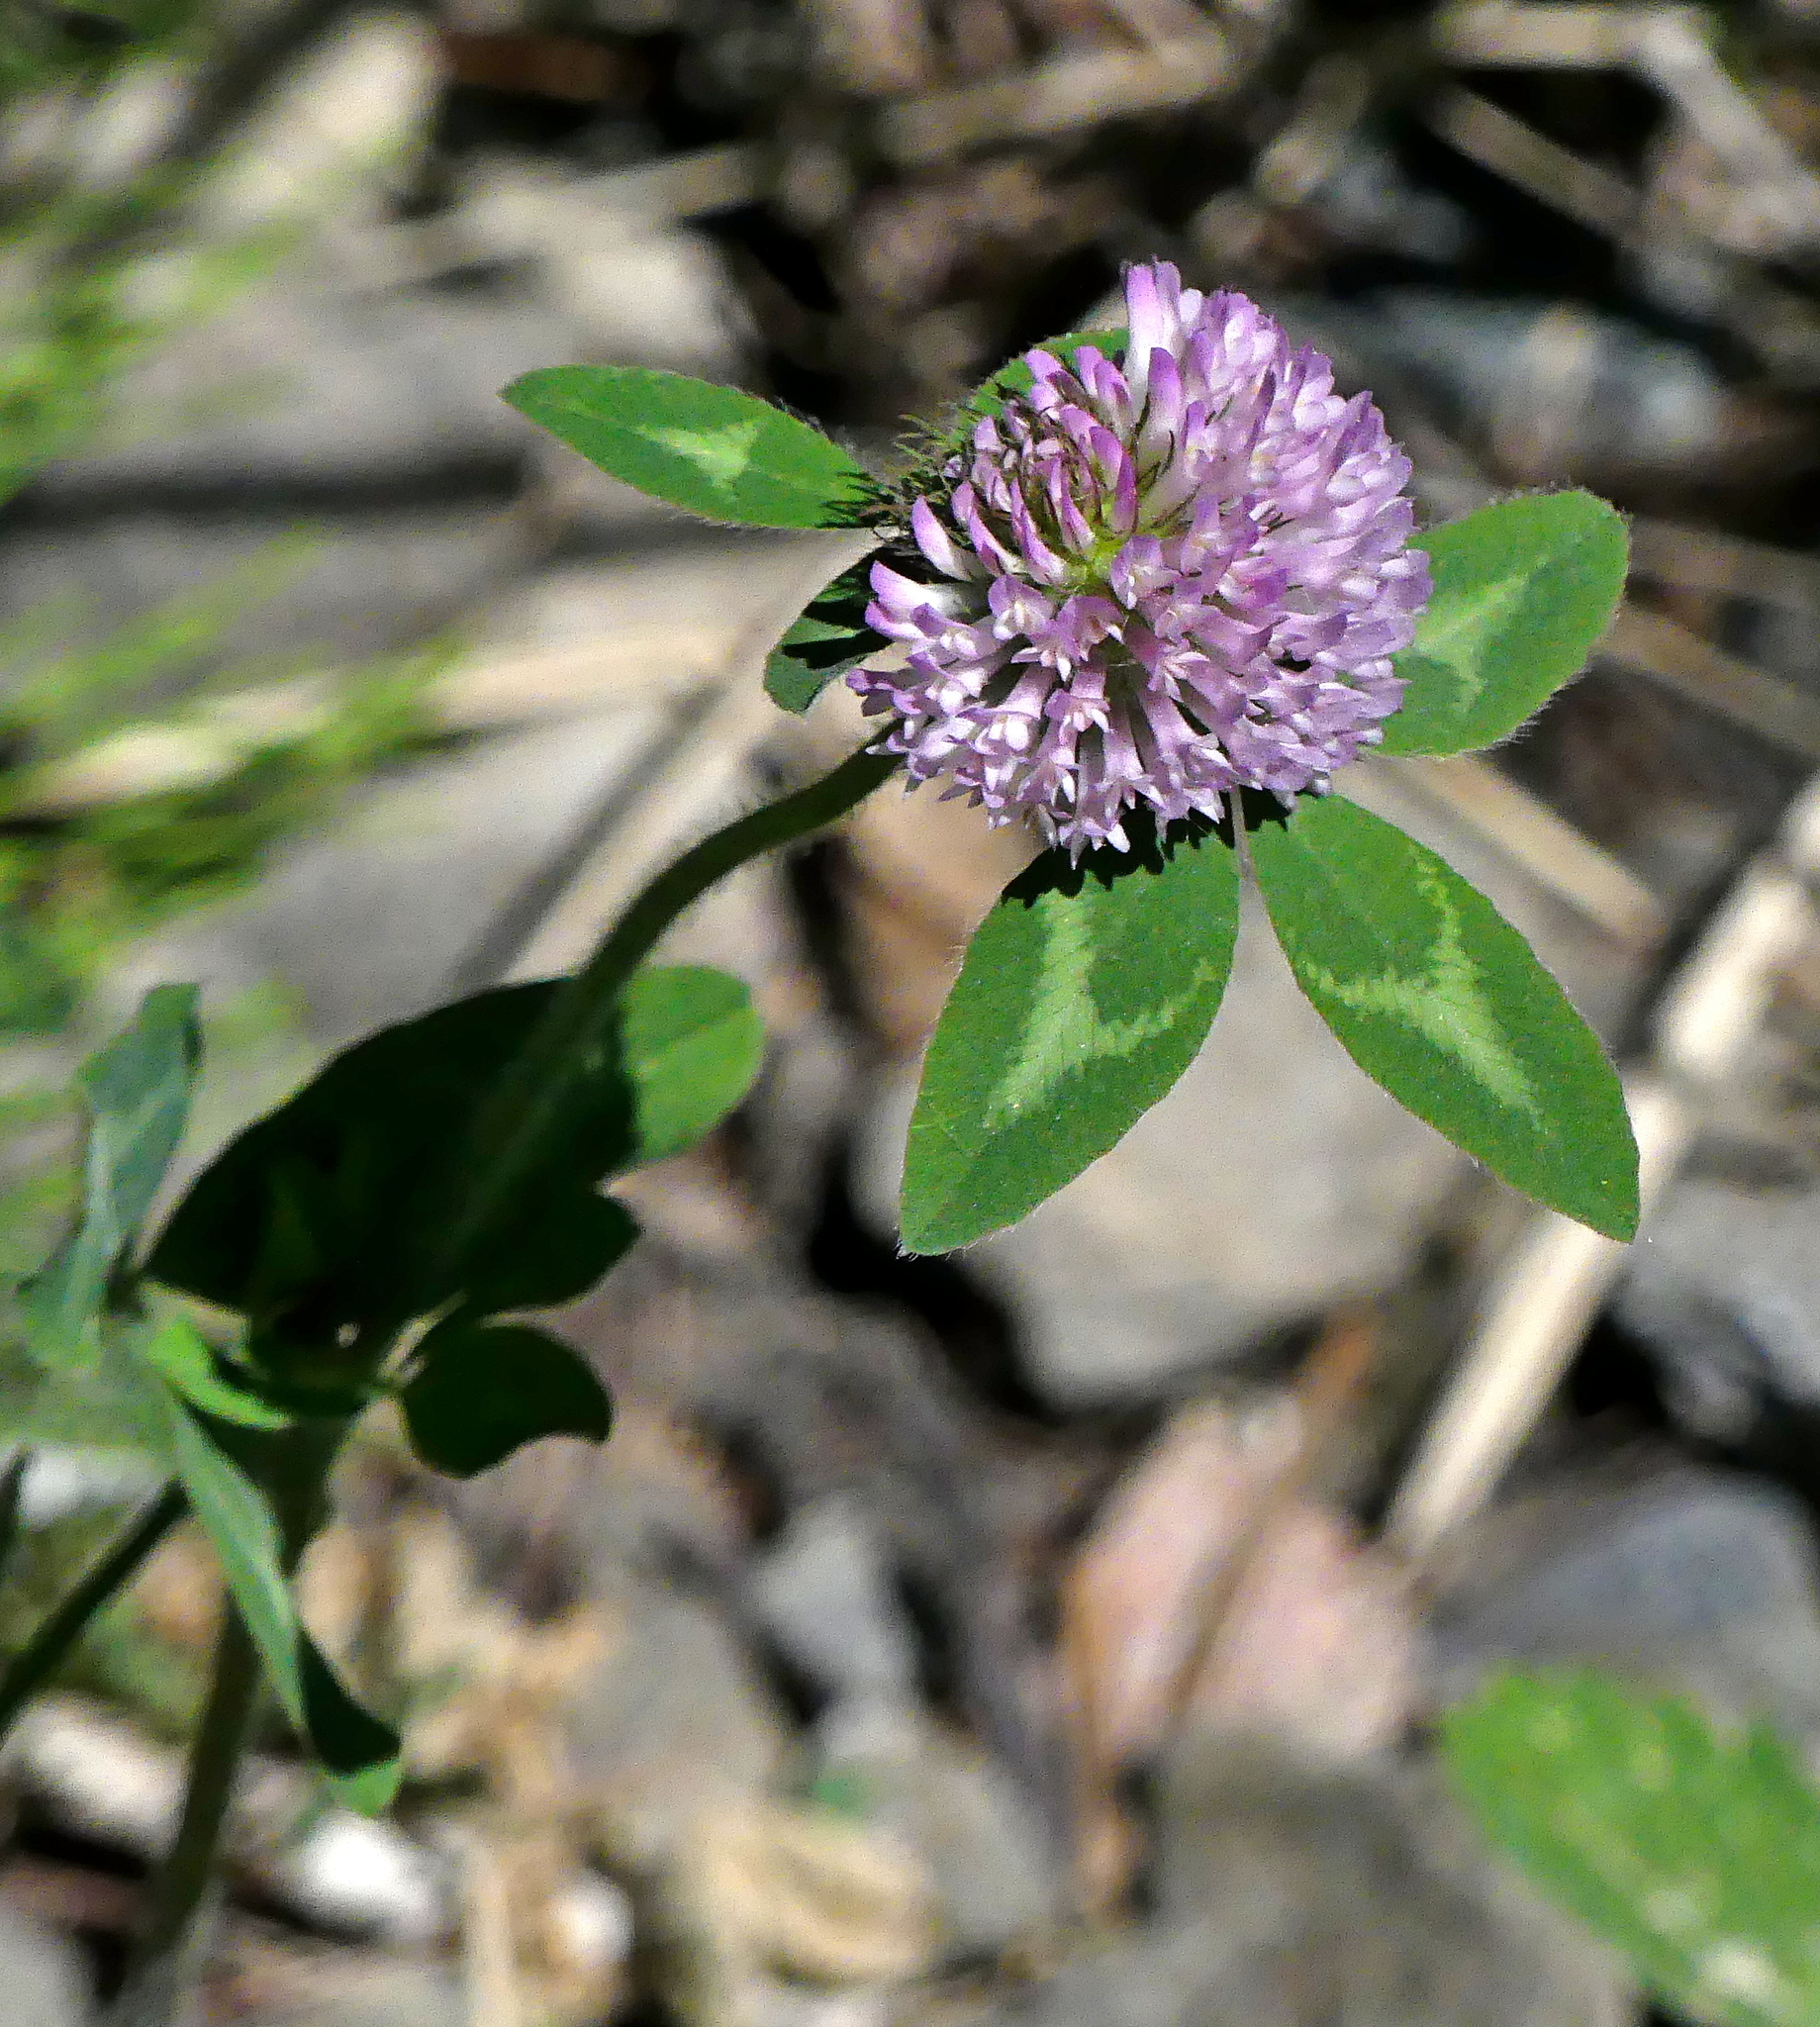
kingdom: Plantae
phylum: Tracheophyta
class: Magnoliopsida
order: Fabales
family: Fabaceae
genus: Trifolium
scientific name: Trifolium pratense
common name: Red clover
